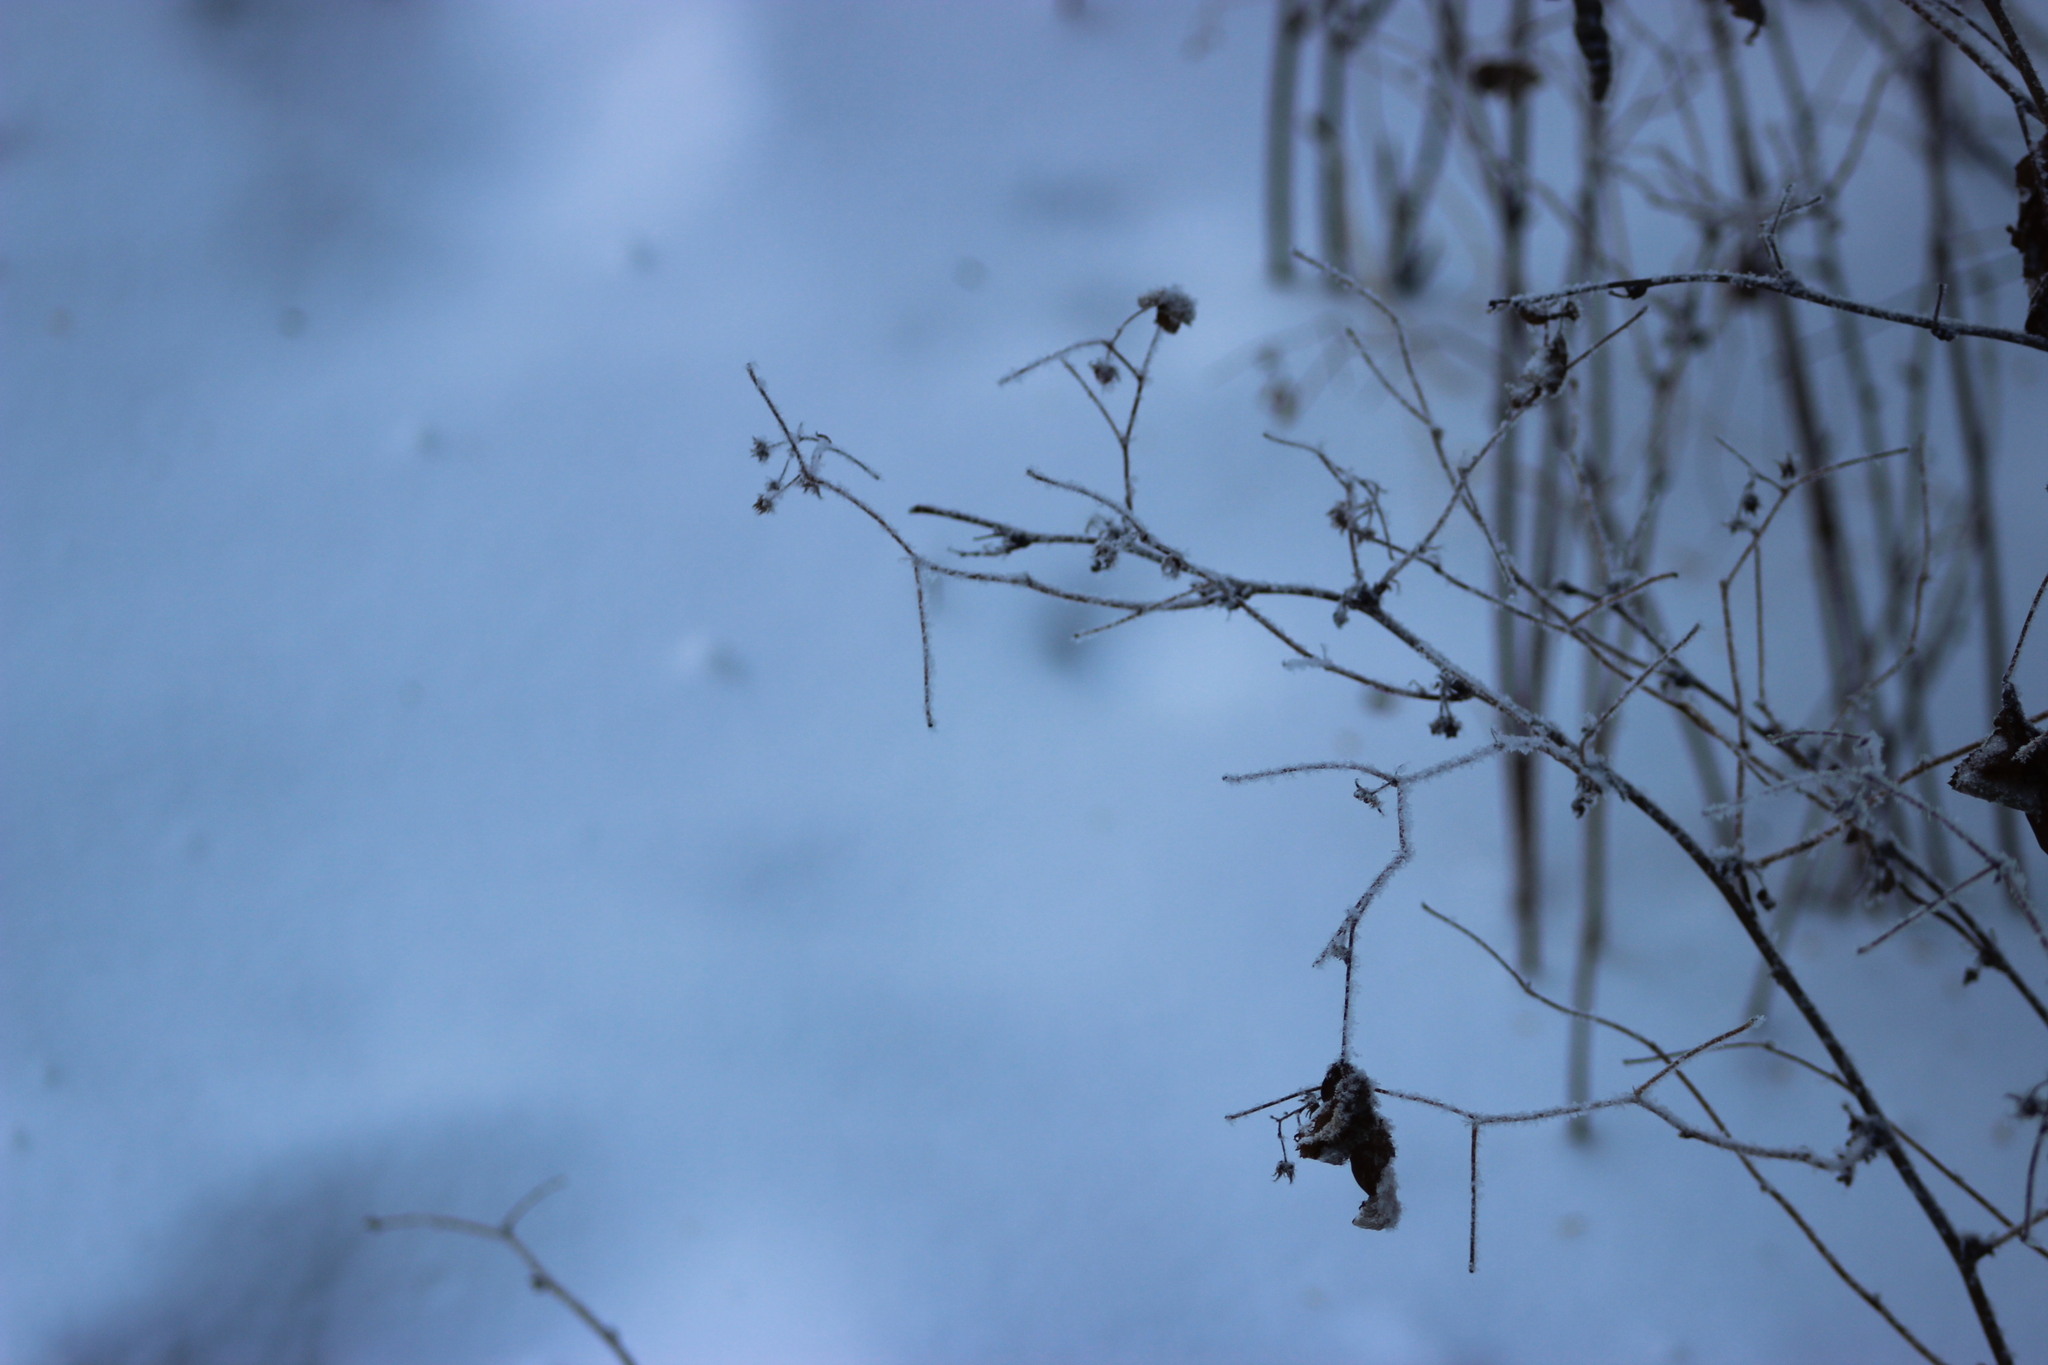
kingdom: Plantae
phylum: Tracheophyta
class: Magnoliopsida
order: Rosales
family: Rosaceae
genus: Rubus
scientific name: Rubus idaeus
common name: Raspberry
